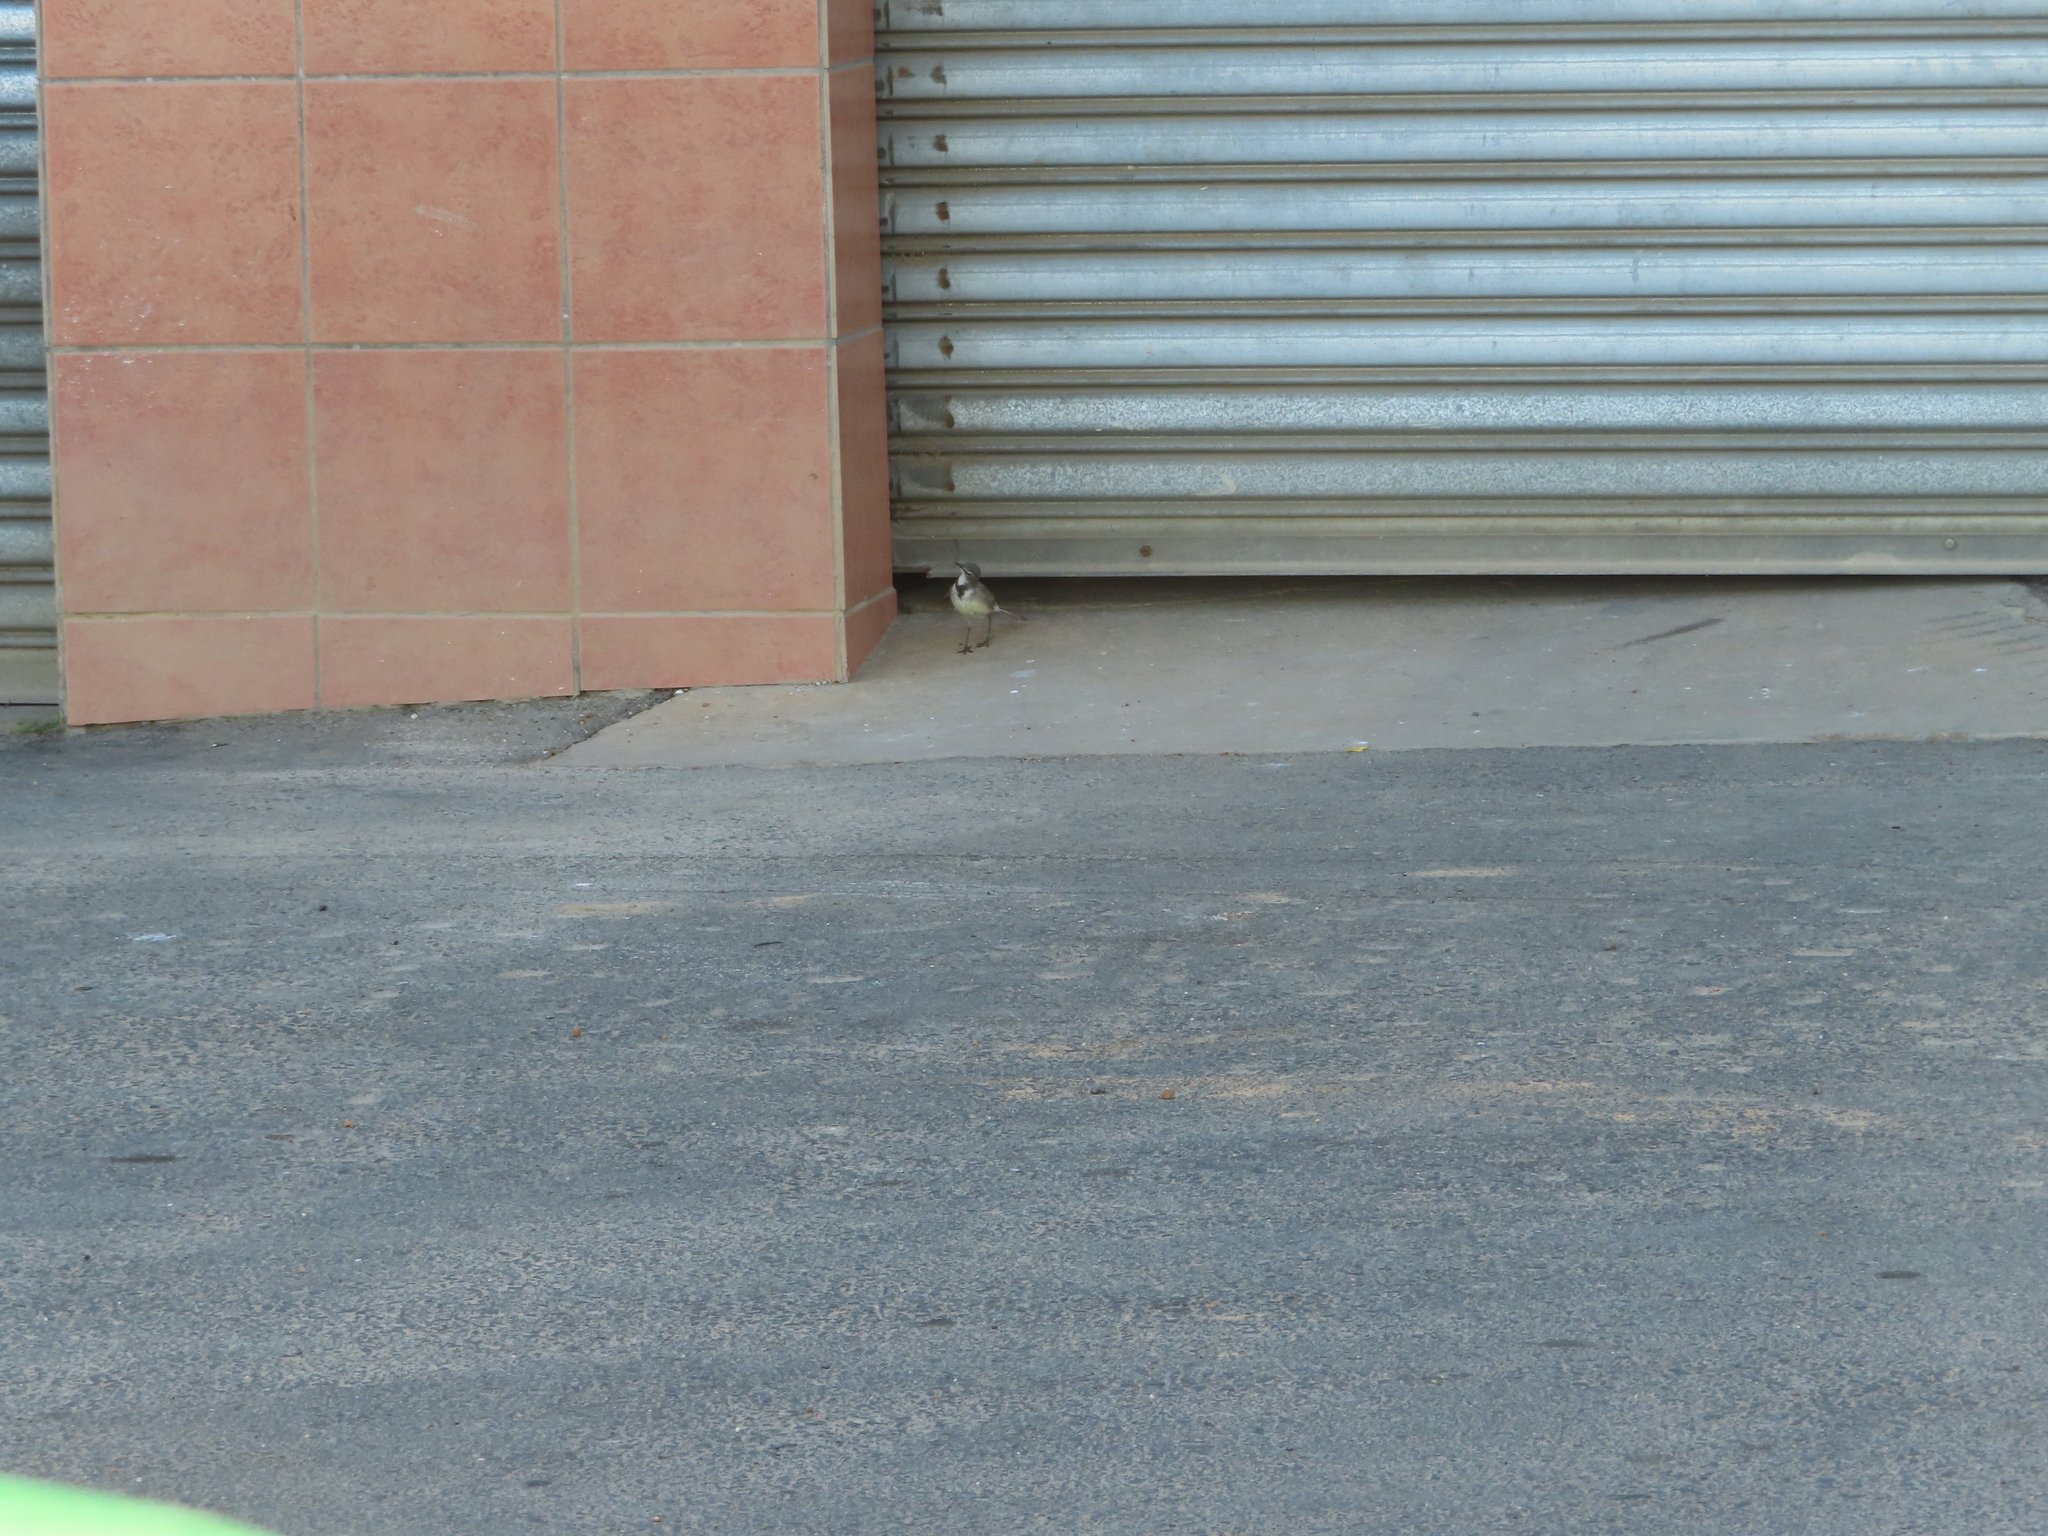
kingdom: Animalia
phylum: Chordata
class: Aves
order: Passeriformes
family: Motacillidae
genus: Motacilla
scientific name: Motacilla capensis
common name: Cape wagtail
